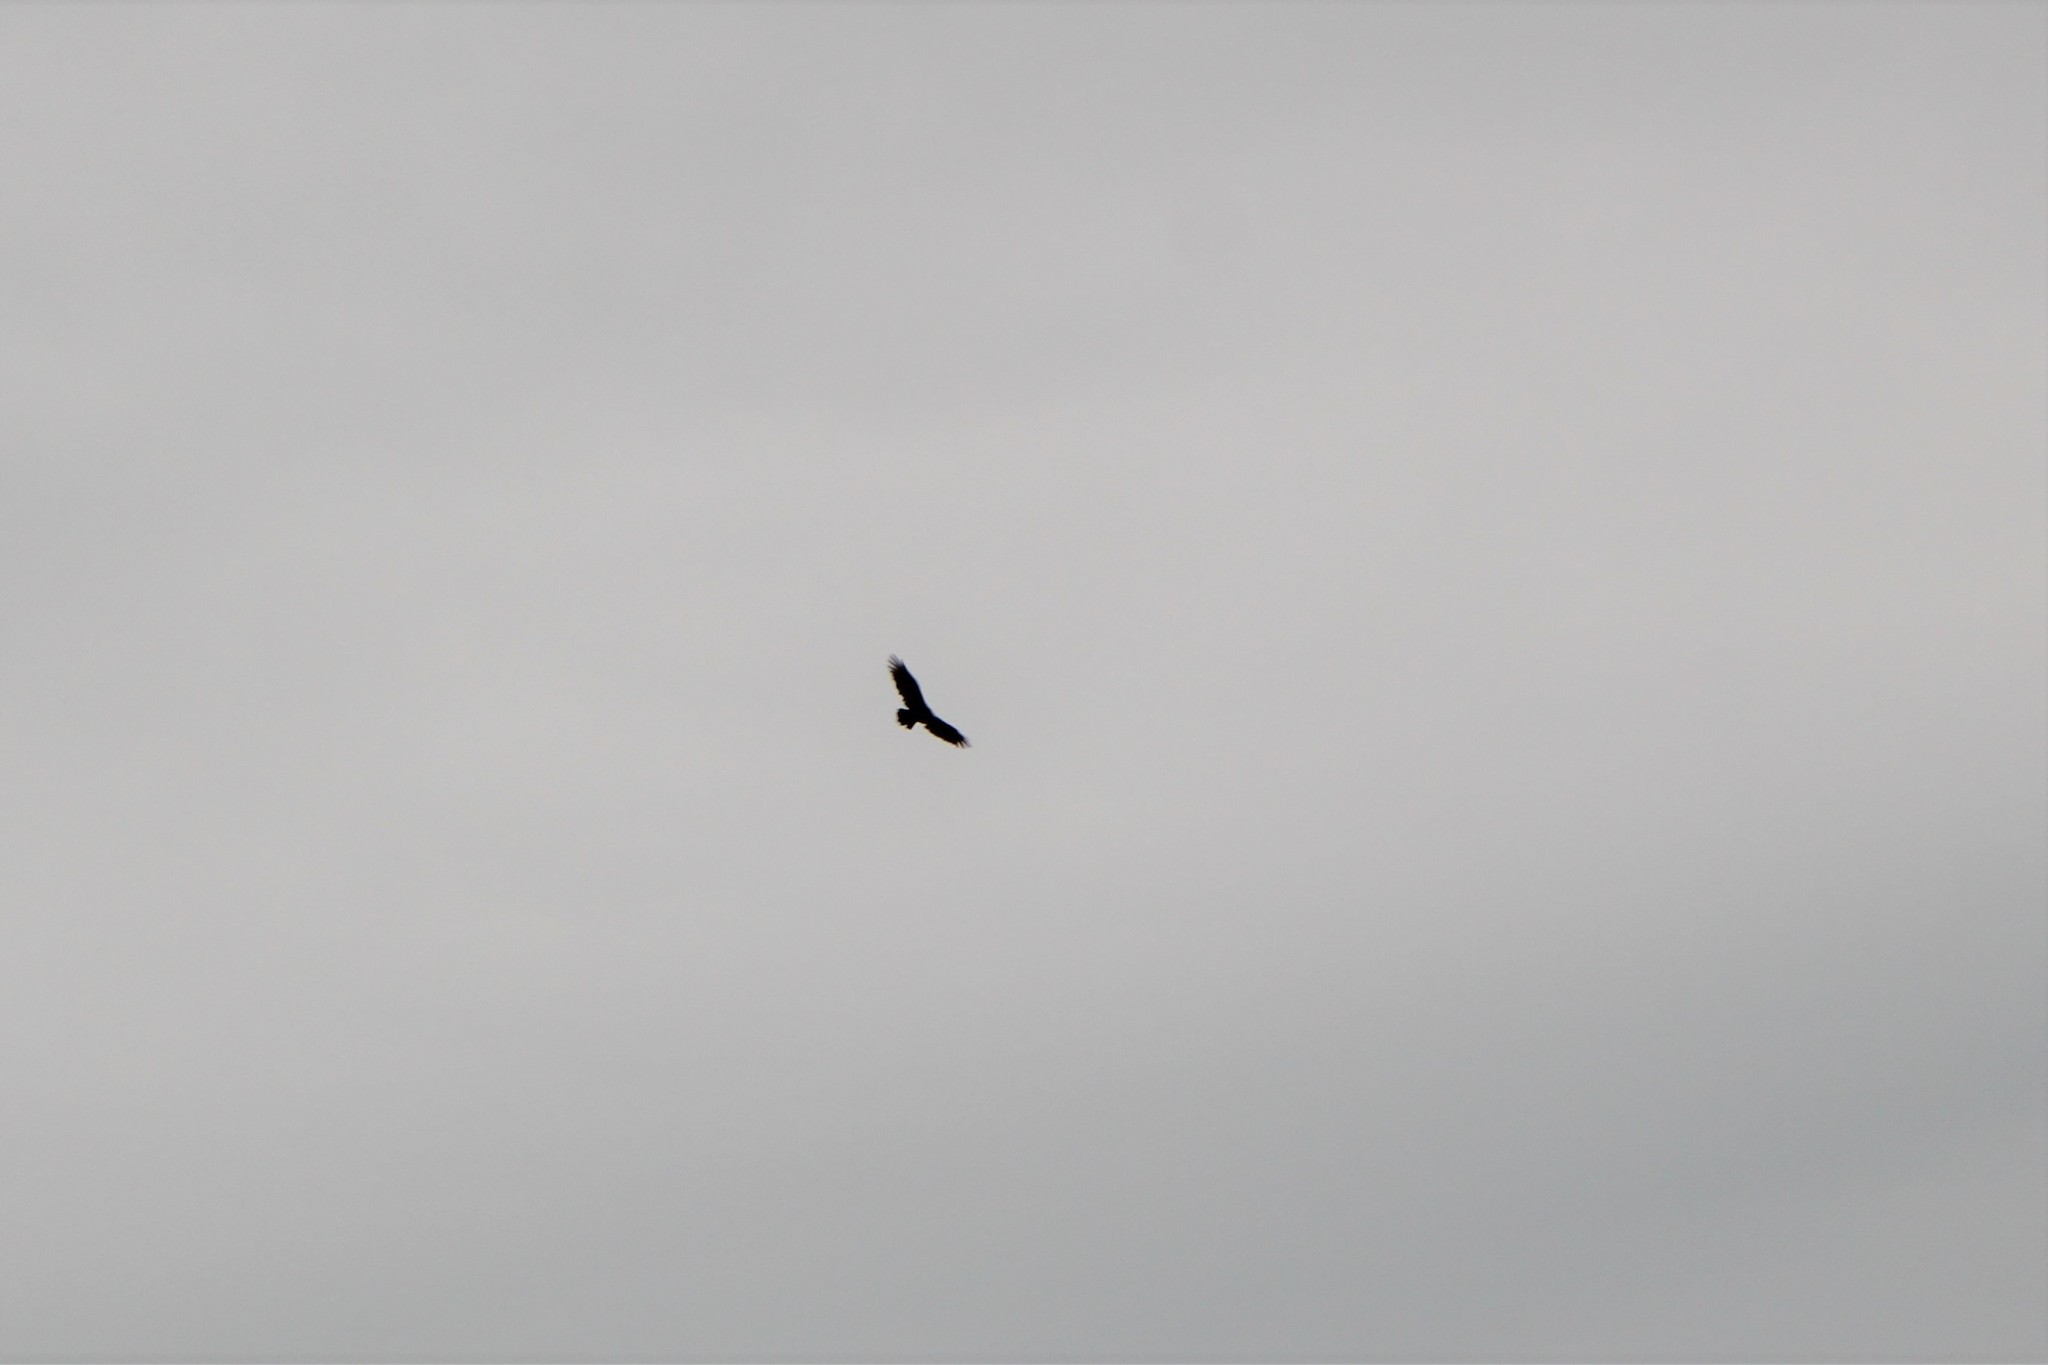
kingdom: Animalia
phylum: Chordata
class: Aves
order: Accipitriformes
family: Cathartidae
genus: Cathartes
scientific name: Cathartes aura
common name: Turkey vulture
